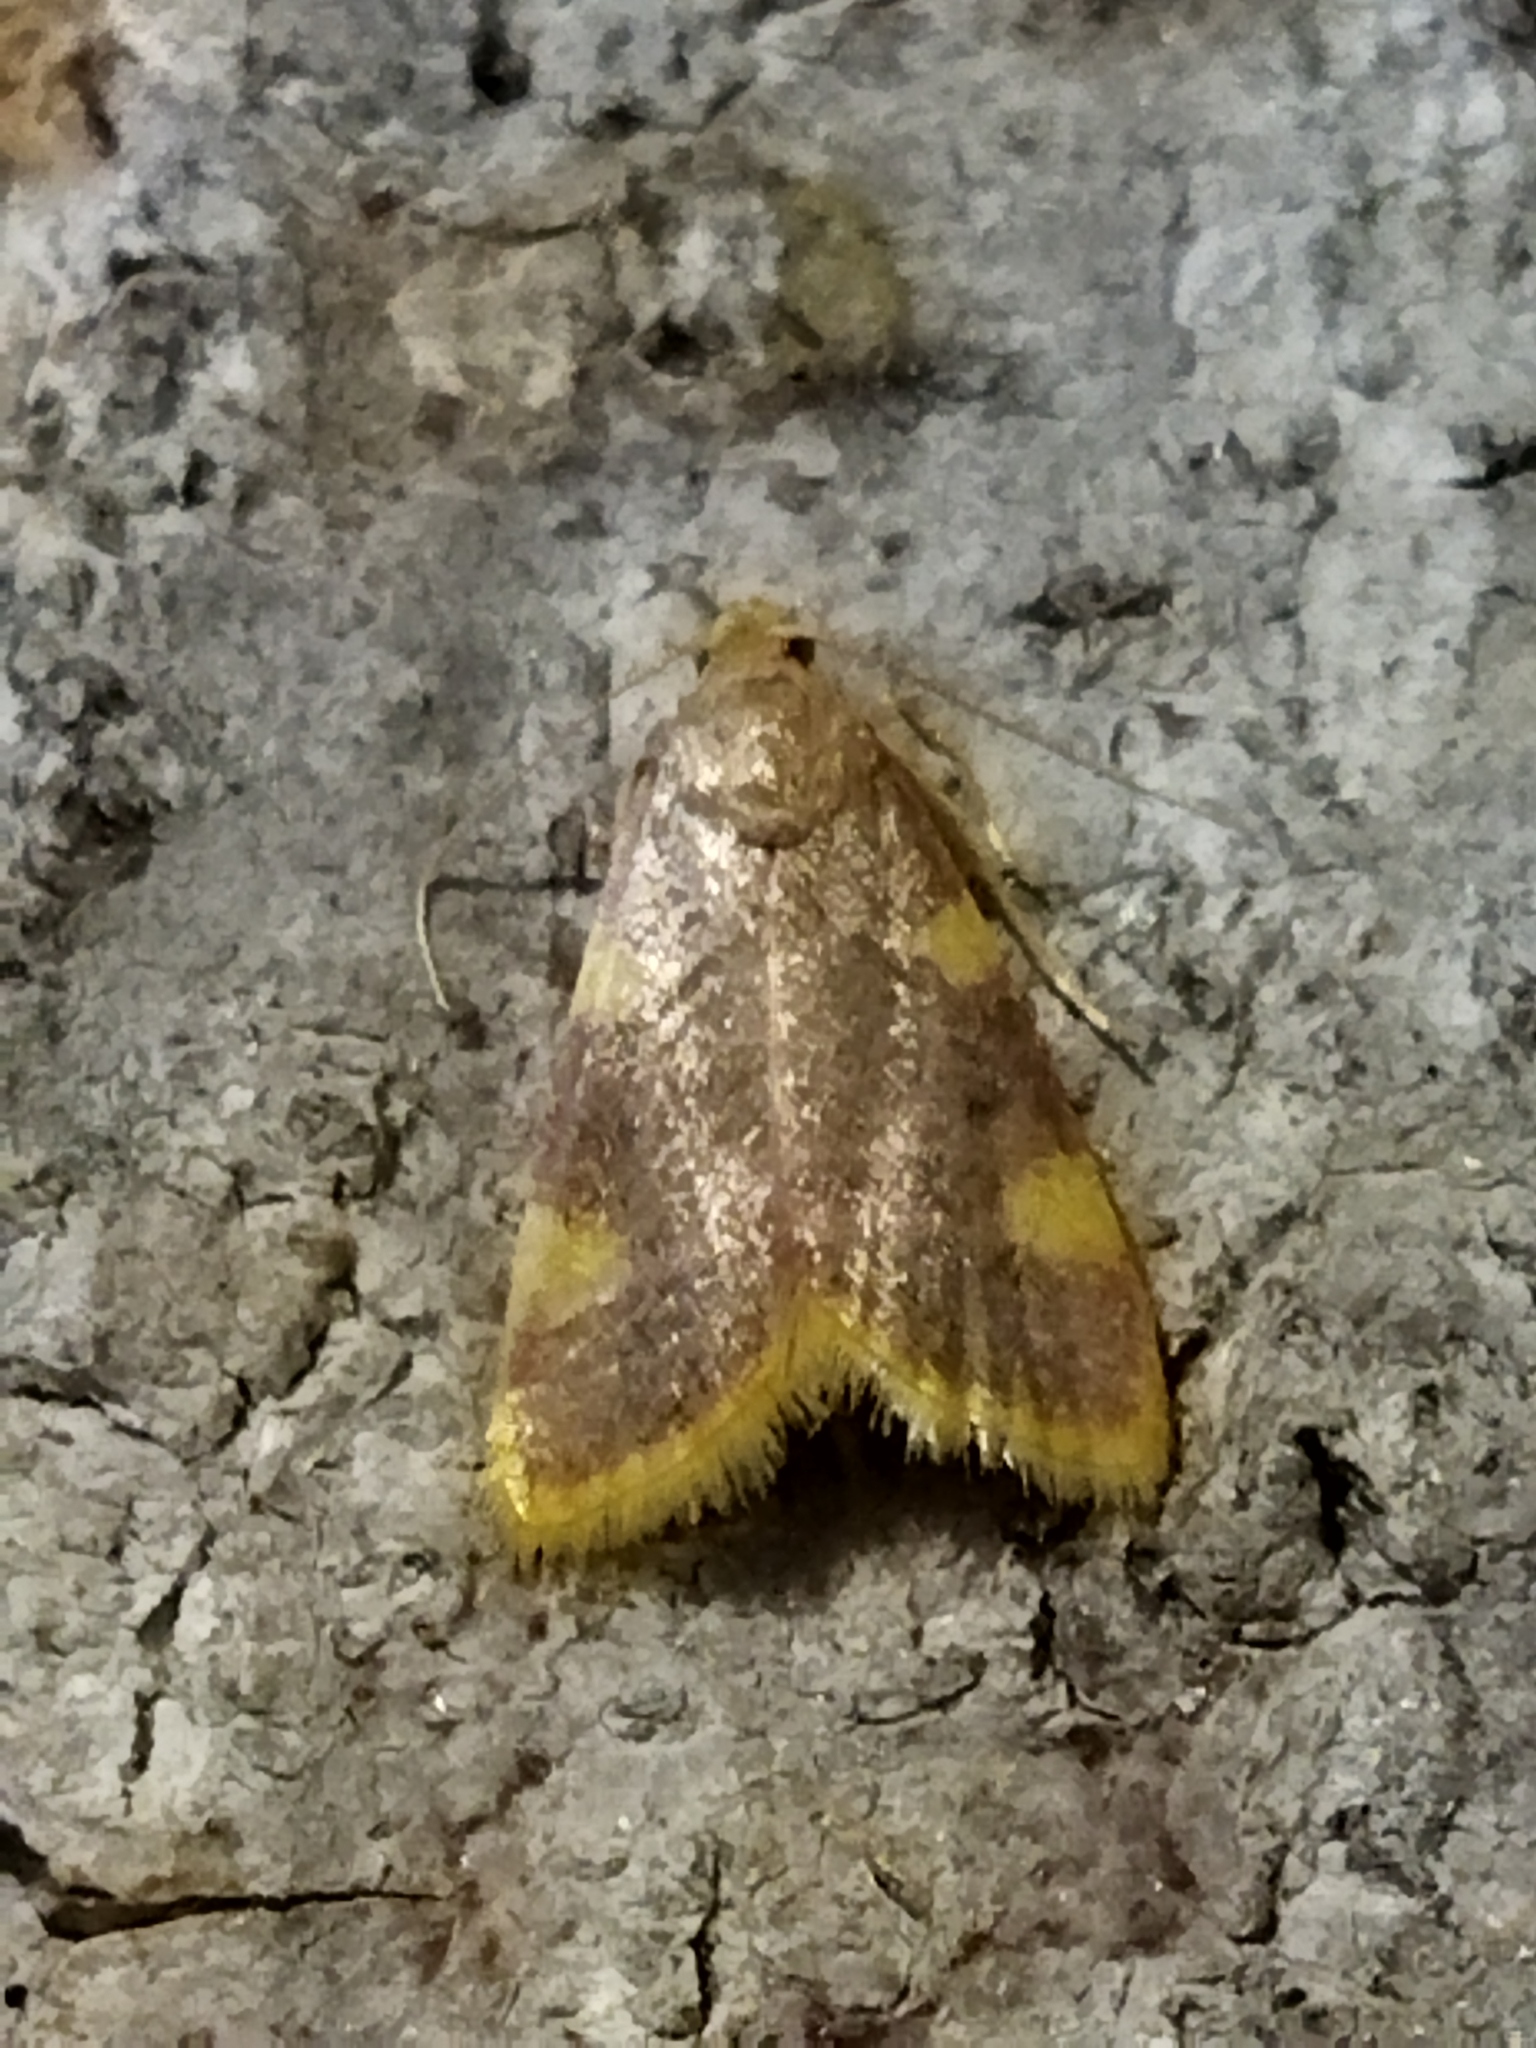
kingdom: Animalia
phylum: Arthropoda
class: Insecta
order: Lepidoptera
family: Pyralidae
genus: Hypsopygia
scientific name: Hypsopygia costalis
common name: Gold triangle
